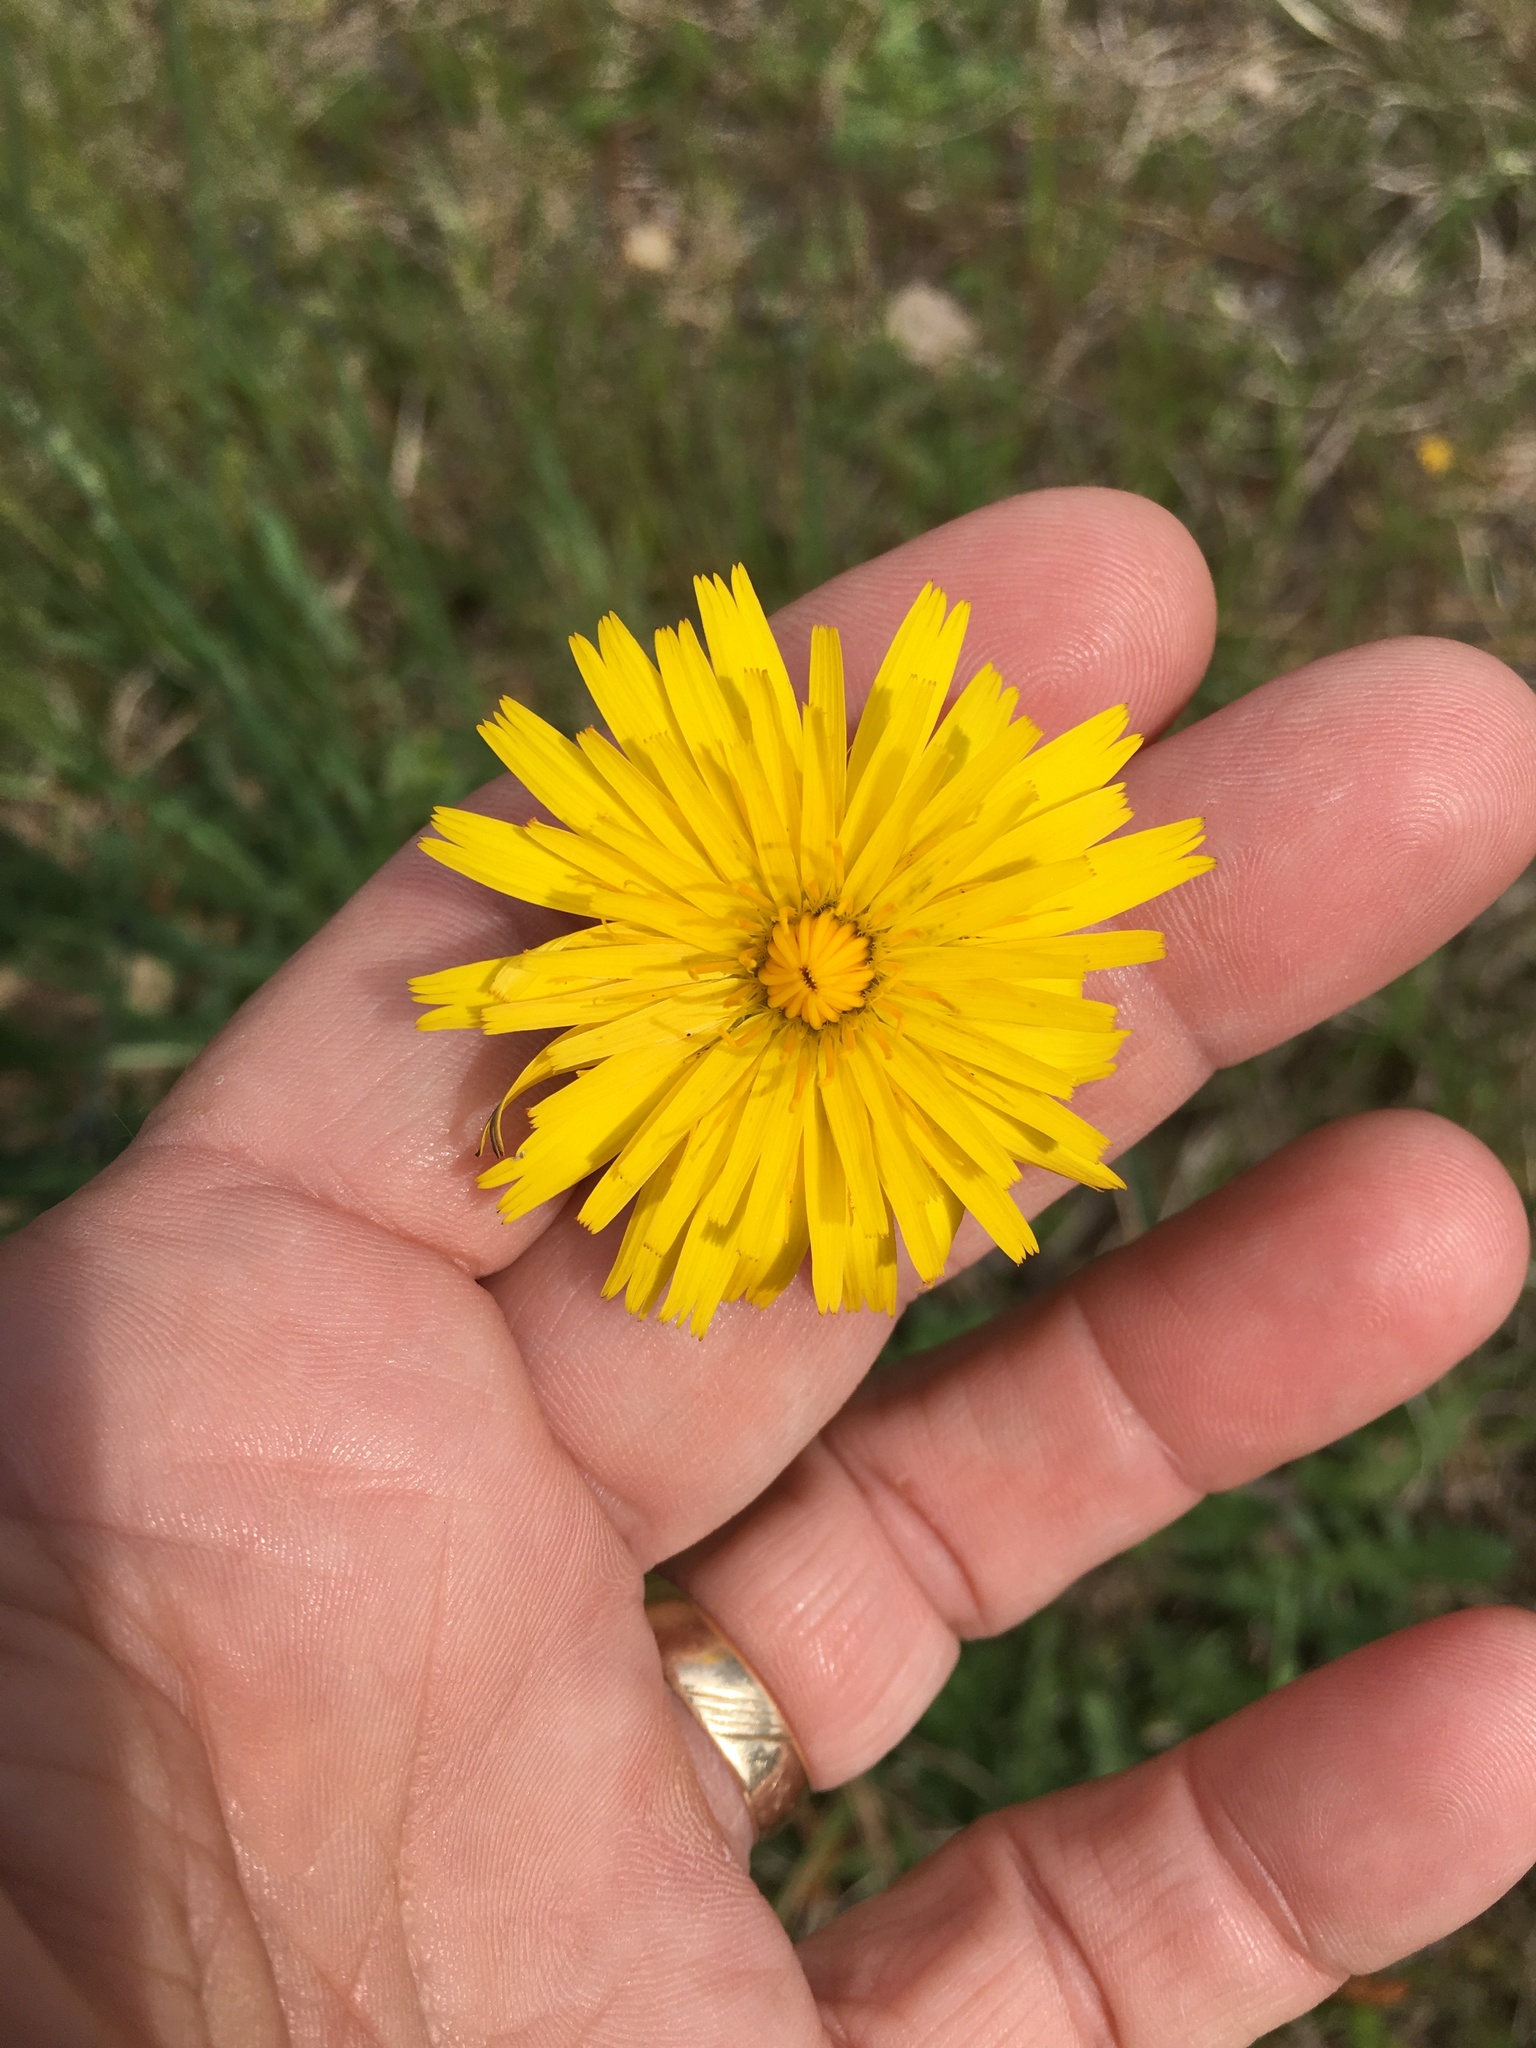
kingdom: Plantae
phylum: Tracheophyta
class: Magnoliopsida
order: Asterales
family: Asteraceae
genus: Hypochaeris
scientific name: Hypochaeris radicata
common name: Flatweed
